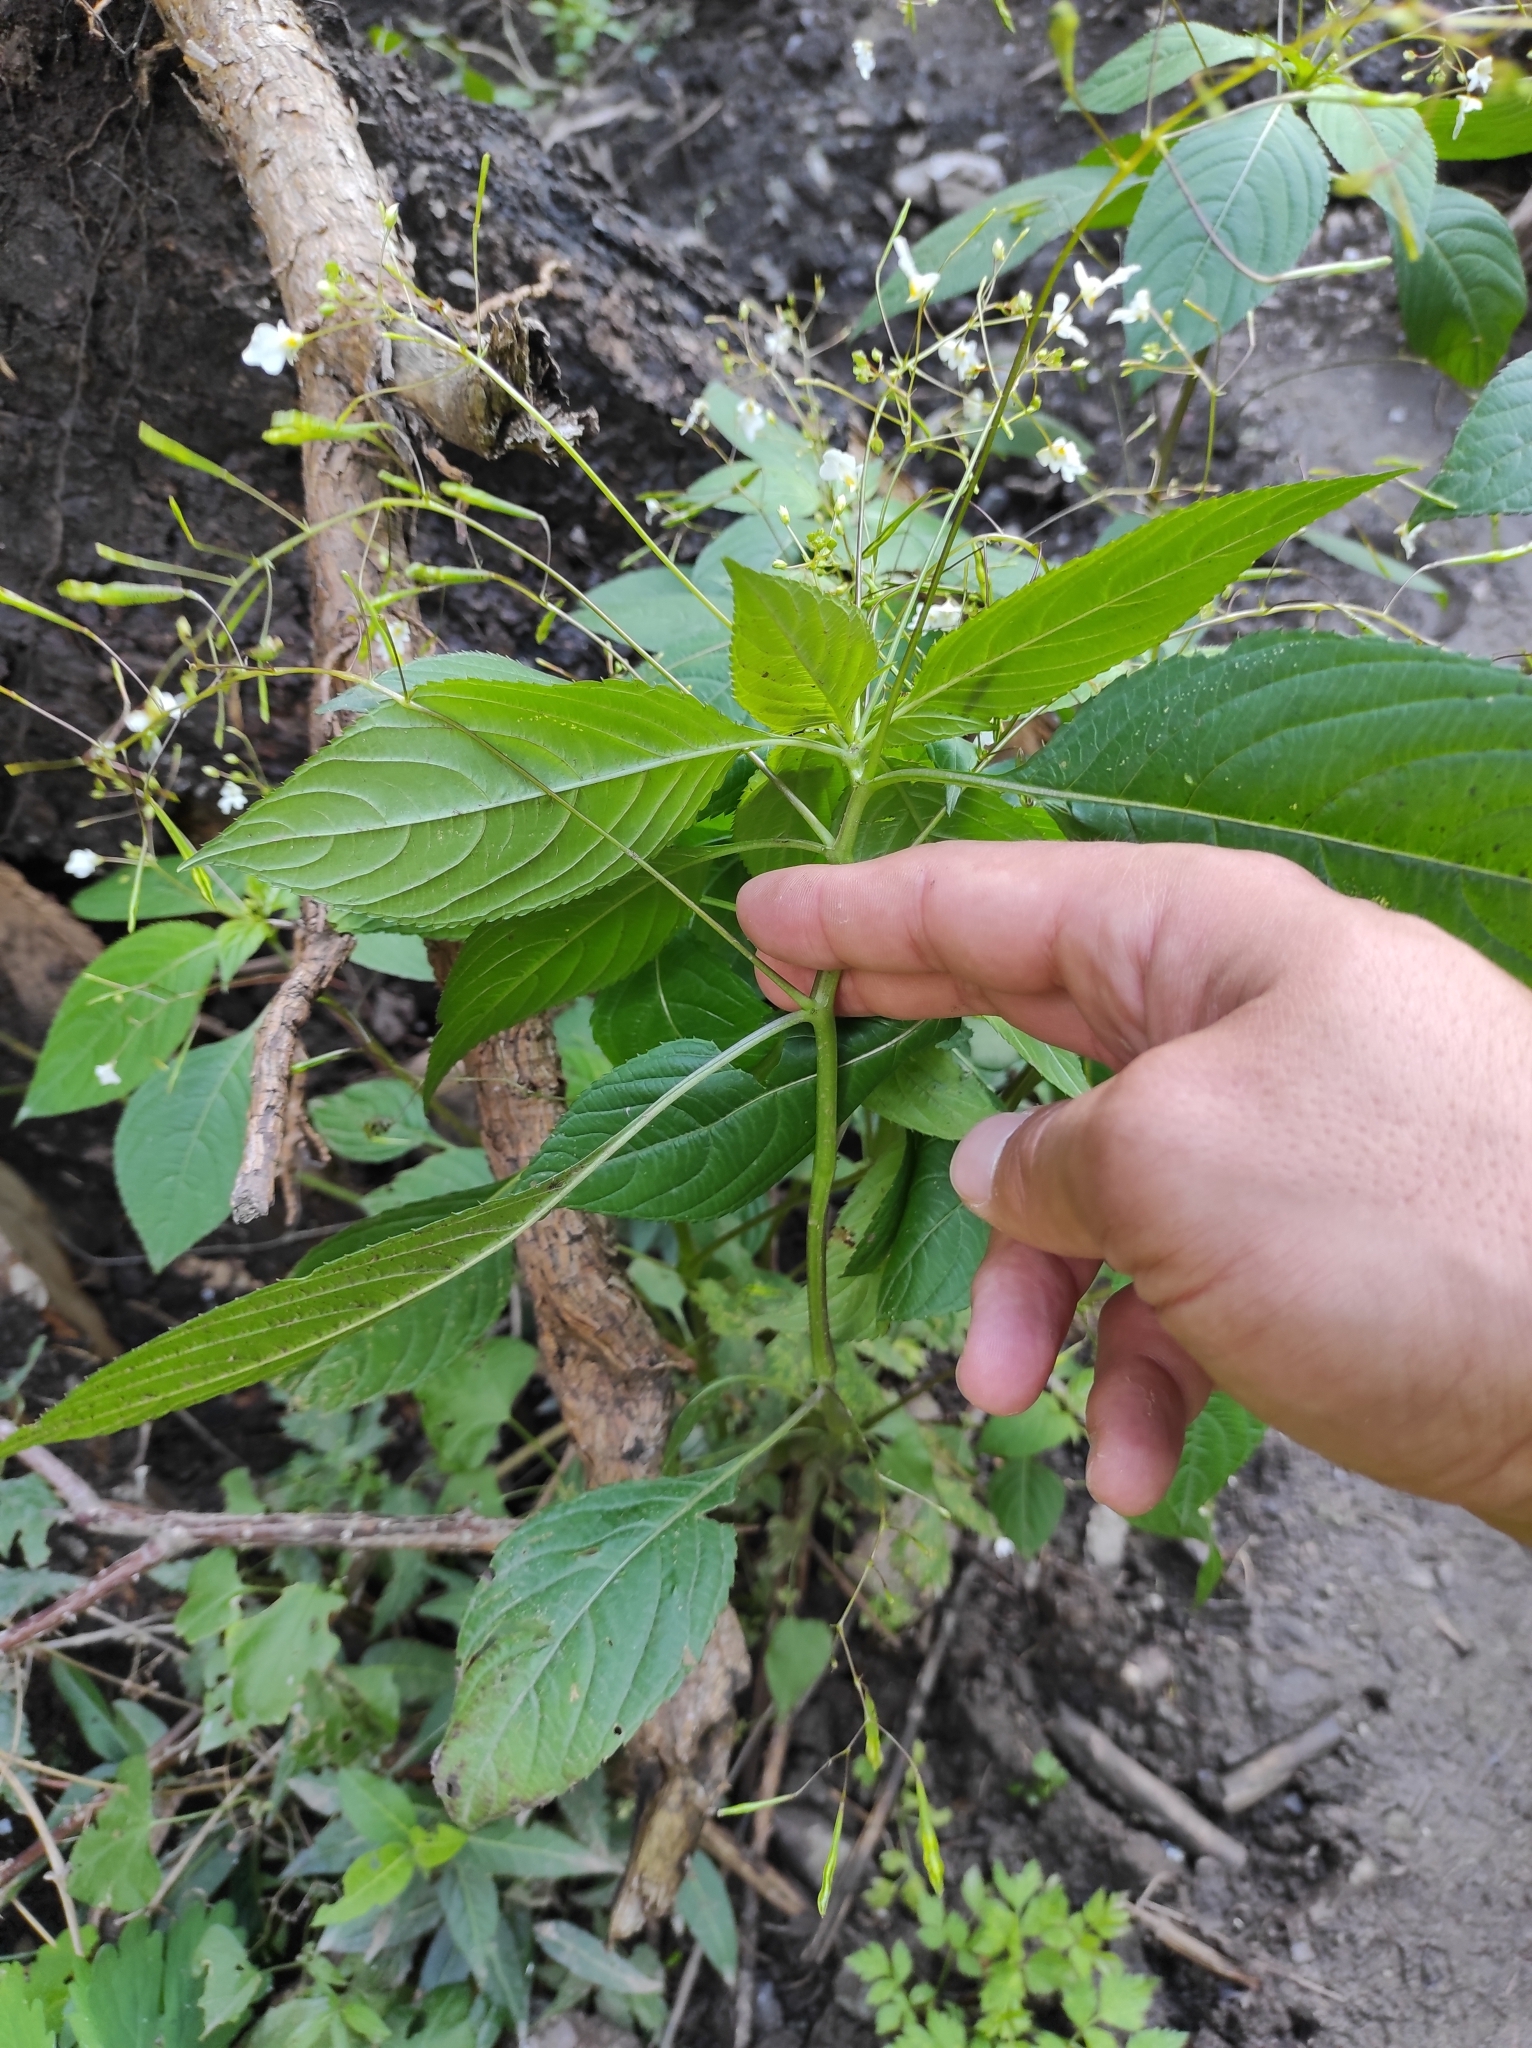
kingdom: Plantae
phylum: Tracheophyta
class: Magnoliopsida
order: Ericales
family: Balsaminaceae
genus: Impatiens
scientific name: Impatiens brachycentra
